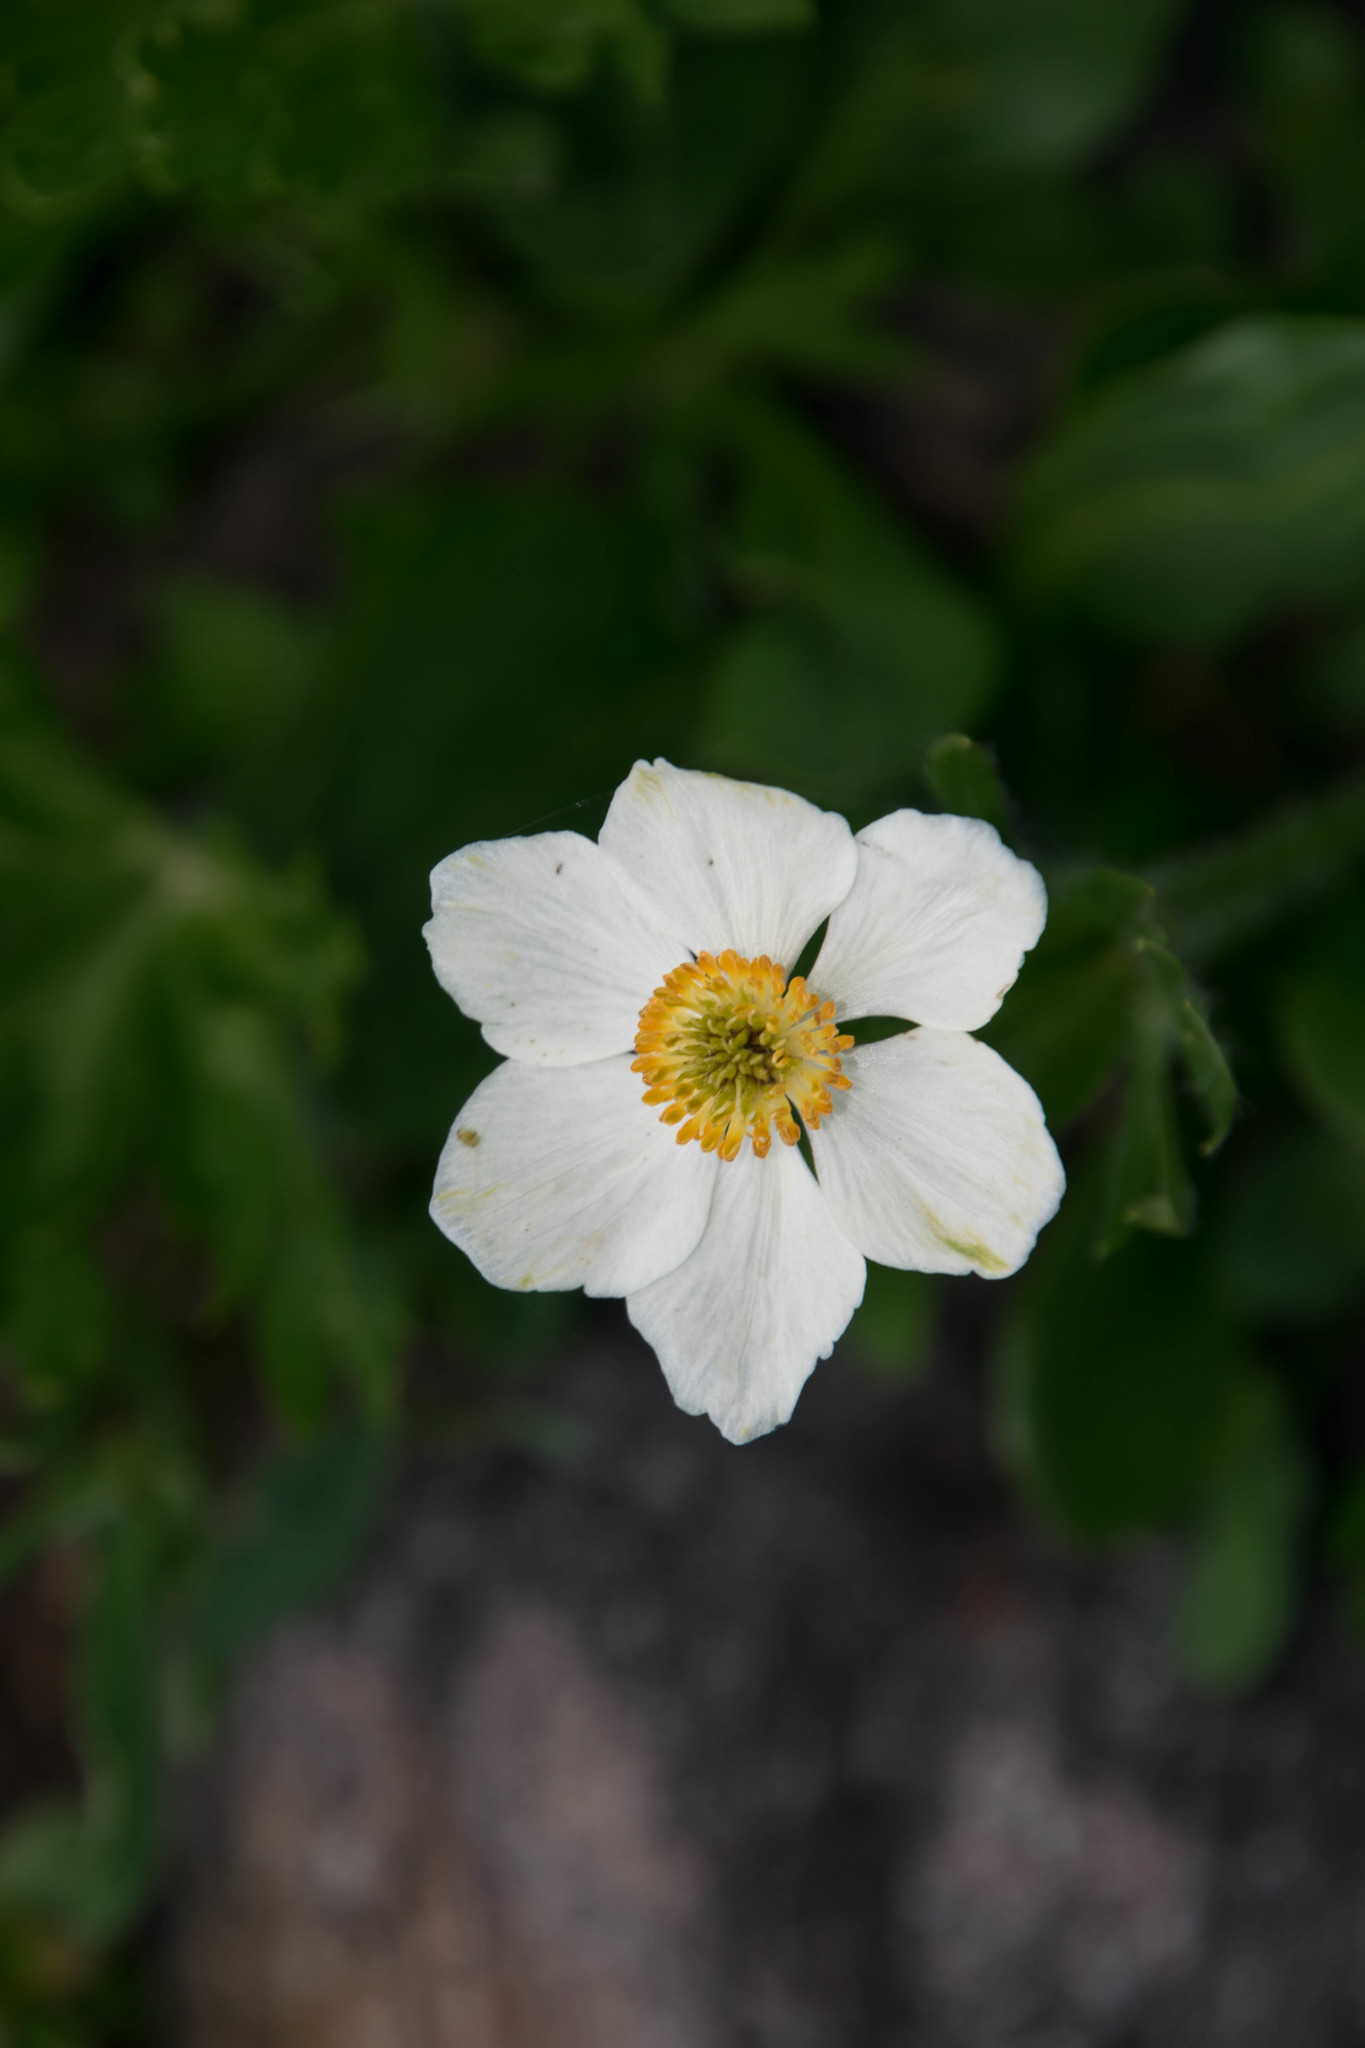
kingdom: Plantae
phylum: Tracheophyta
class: Magnoliopsida
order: Ranunculales
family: Ranunculaceae
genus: Anemonastrum
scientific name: Anemonastrum narcissiflorum
